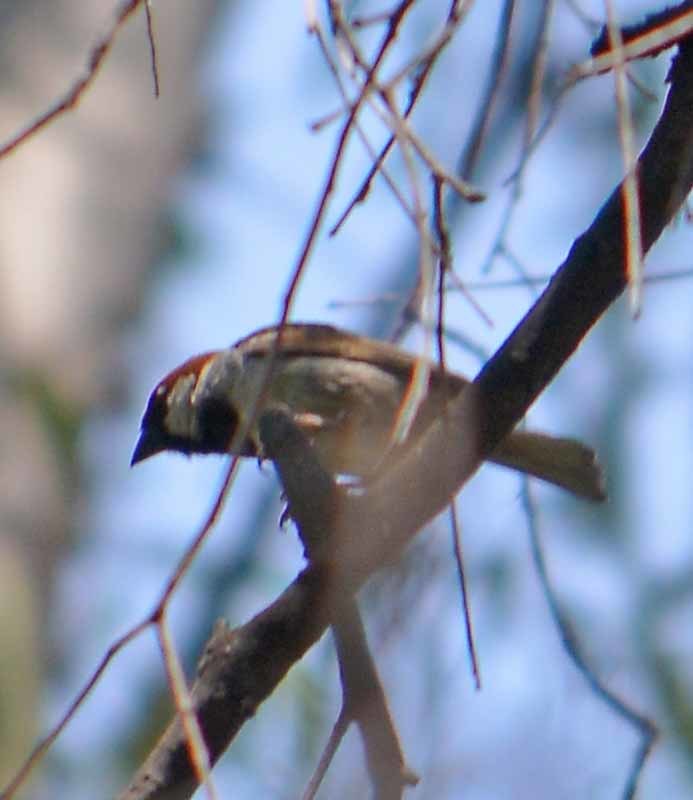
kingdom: Animalia
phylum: Chordata
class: Aves
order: Passeriformes
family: Passeridae
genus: Passer
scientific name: Passer domesticus
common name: House sparrow
